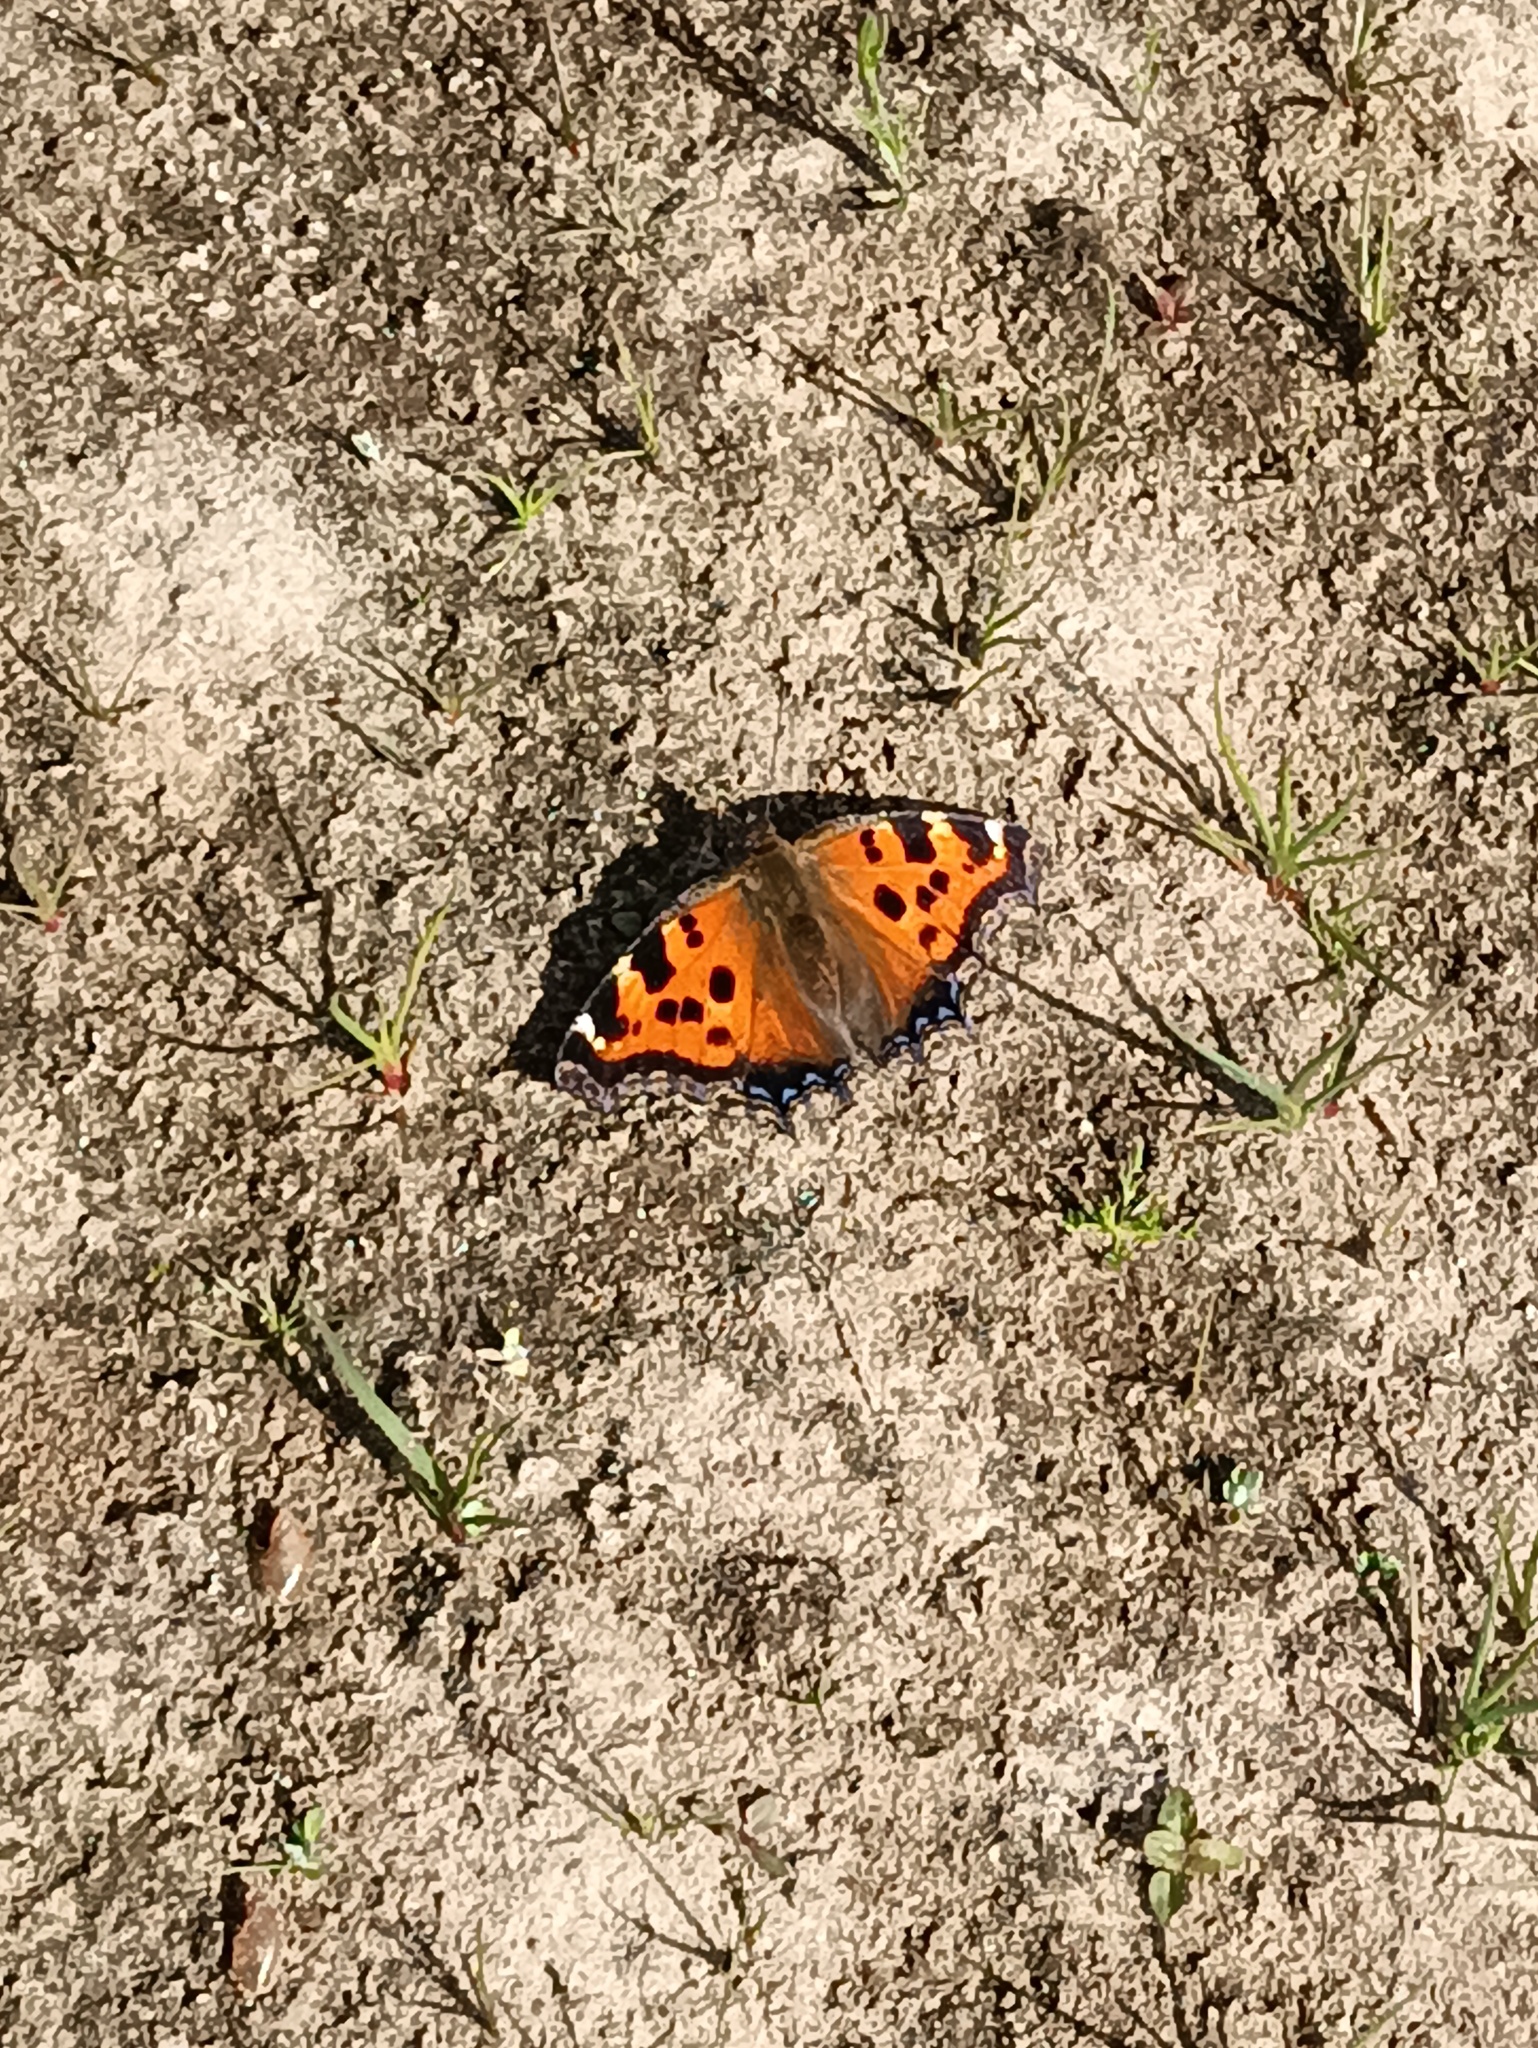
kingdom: Animalia
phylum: Arthropoda
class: Insecta
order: Lepidoptera
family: Nymphalidae
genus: Nymphalis
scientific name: Nymphalis xanthomelas
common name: Scarce tortoiseshell
